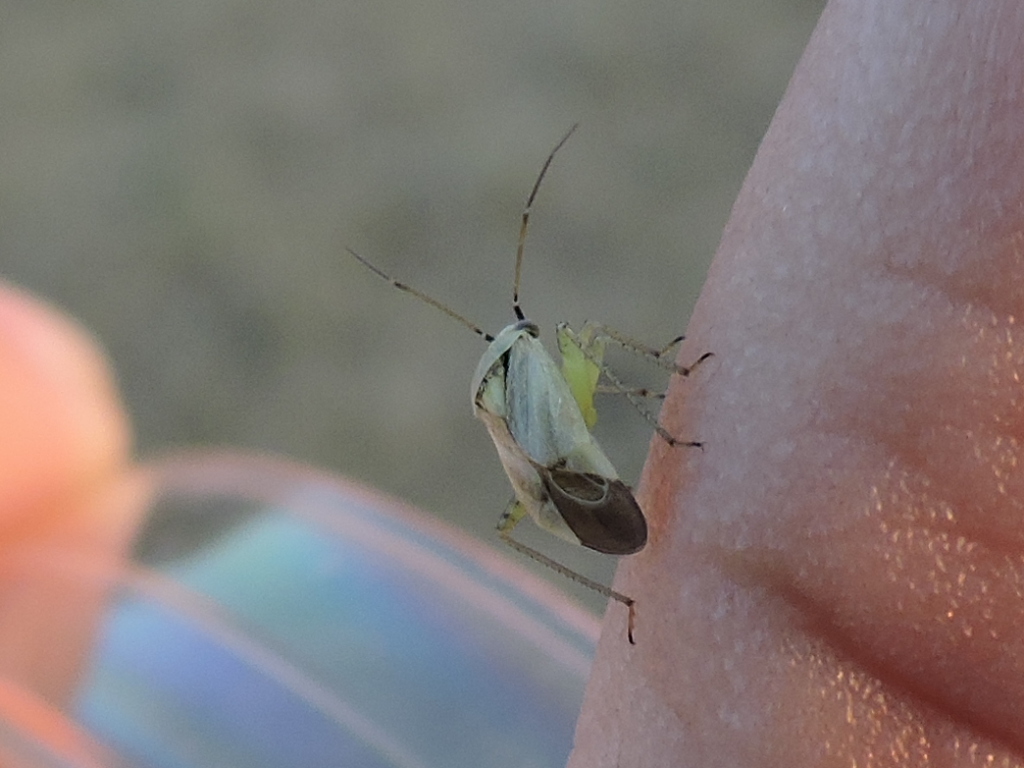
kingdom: Animalia
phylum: Arthropoda
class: Insecta
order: Hemiptera
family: Miridae
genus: Polymerus
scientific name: Polymerus basalis
